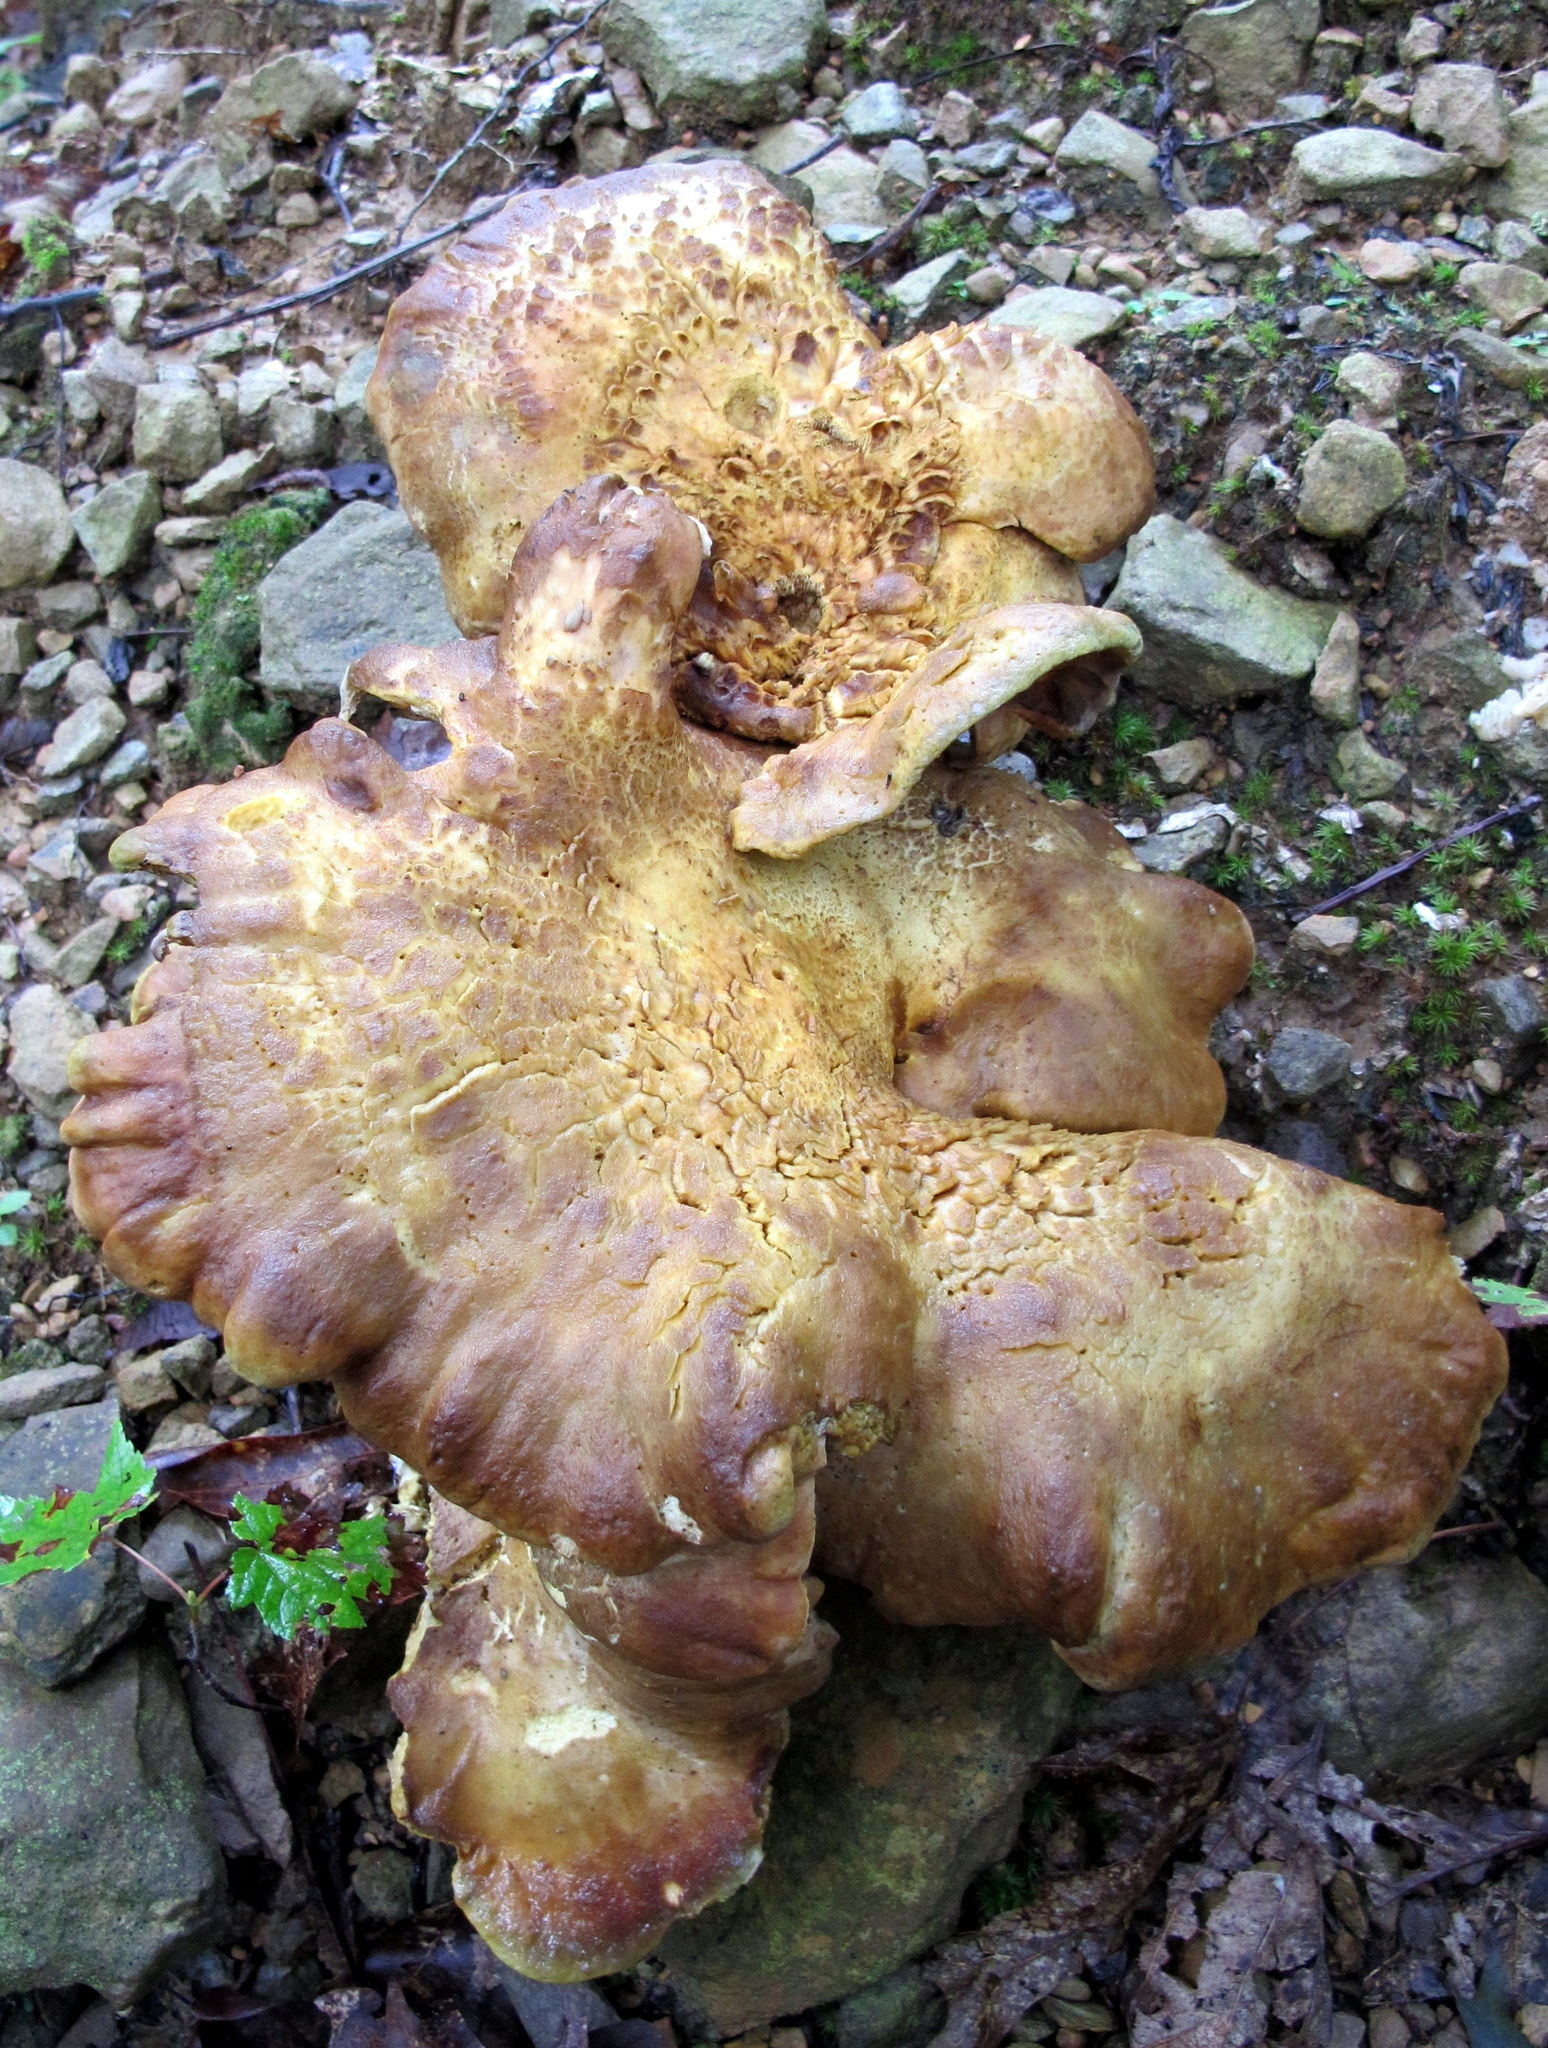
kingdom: Fungi
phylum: Basidiomycota
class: Agaricomycetes
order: Russulales
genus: Laeticutis
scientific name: Laeticutis cristata
